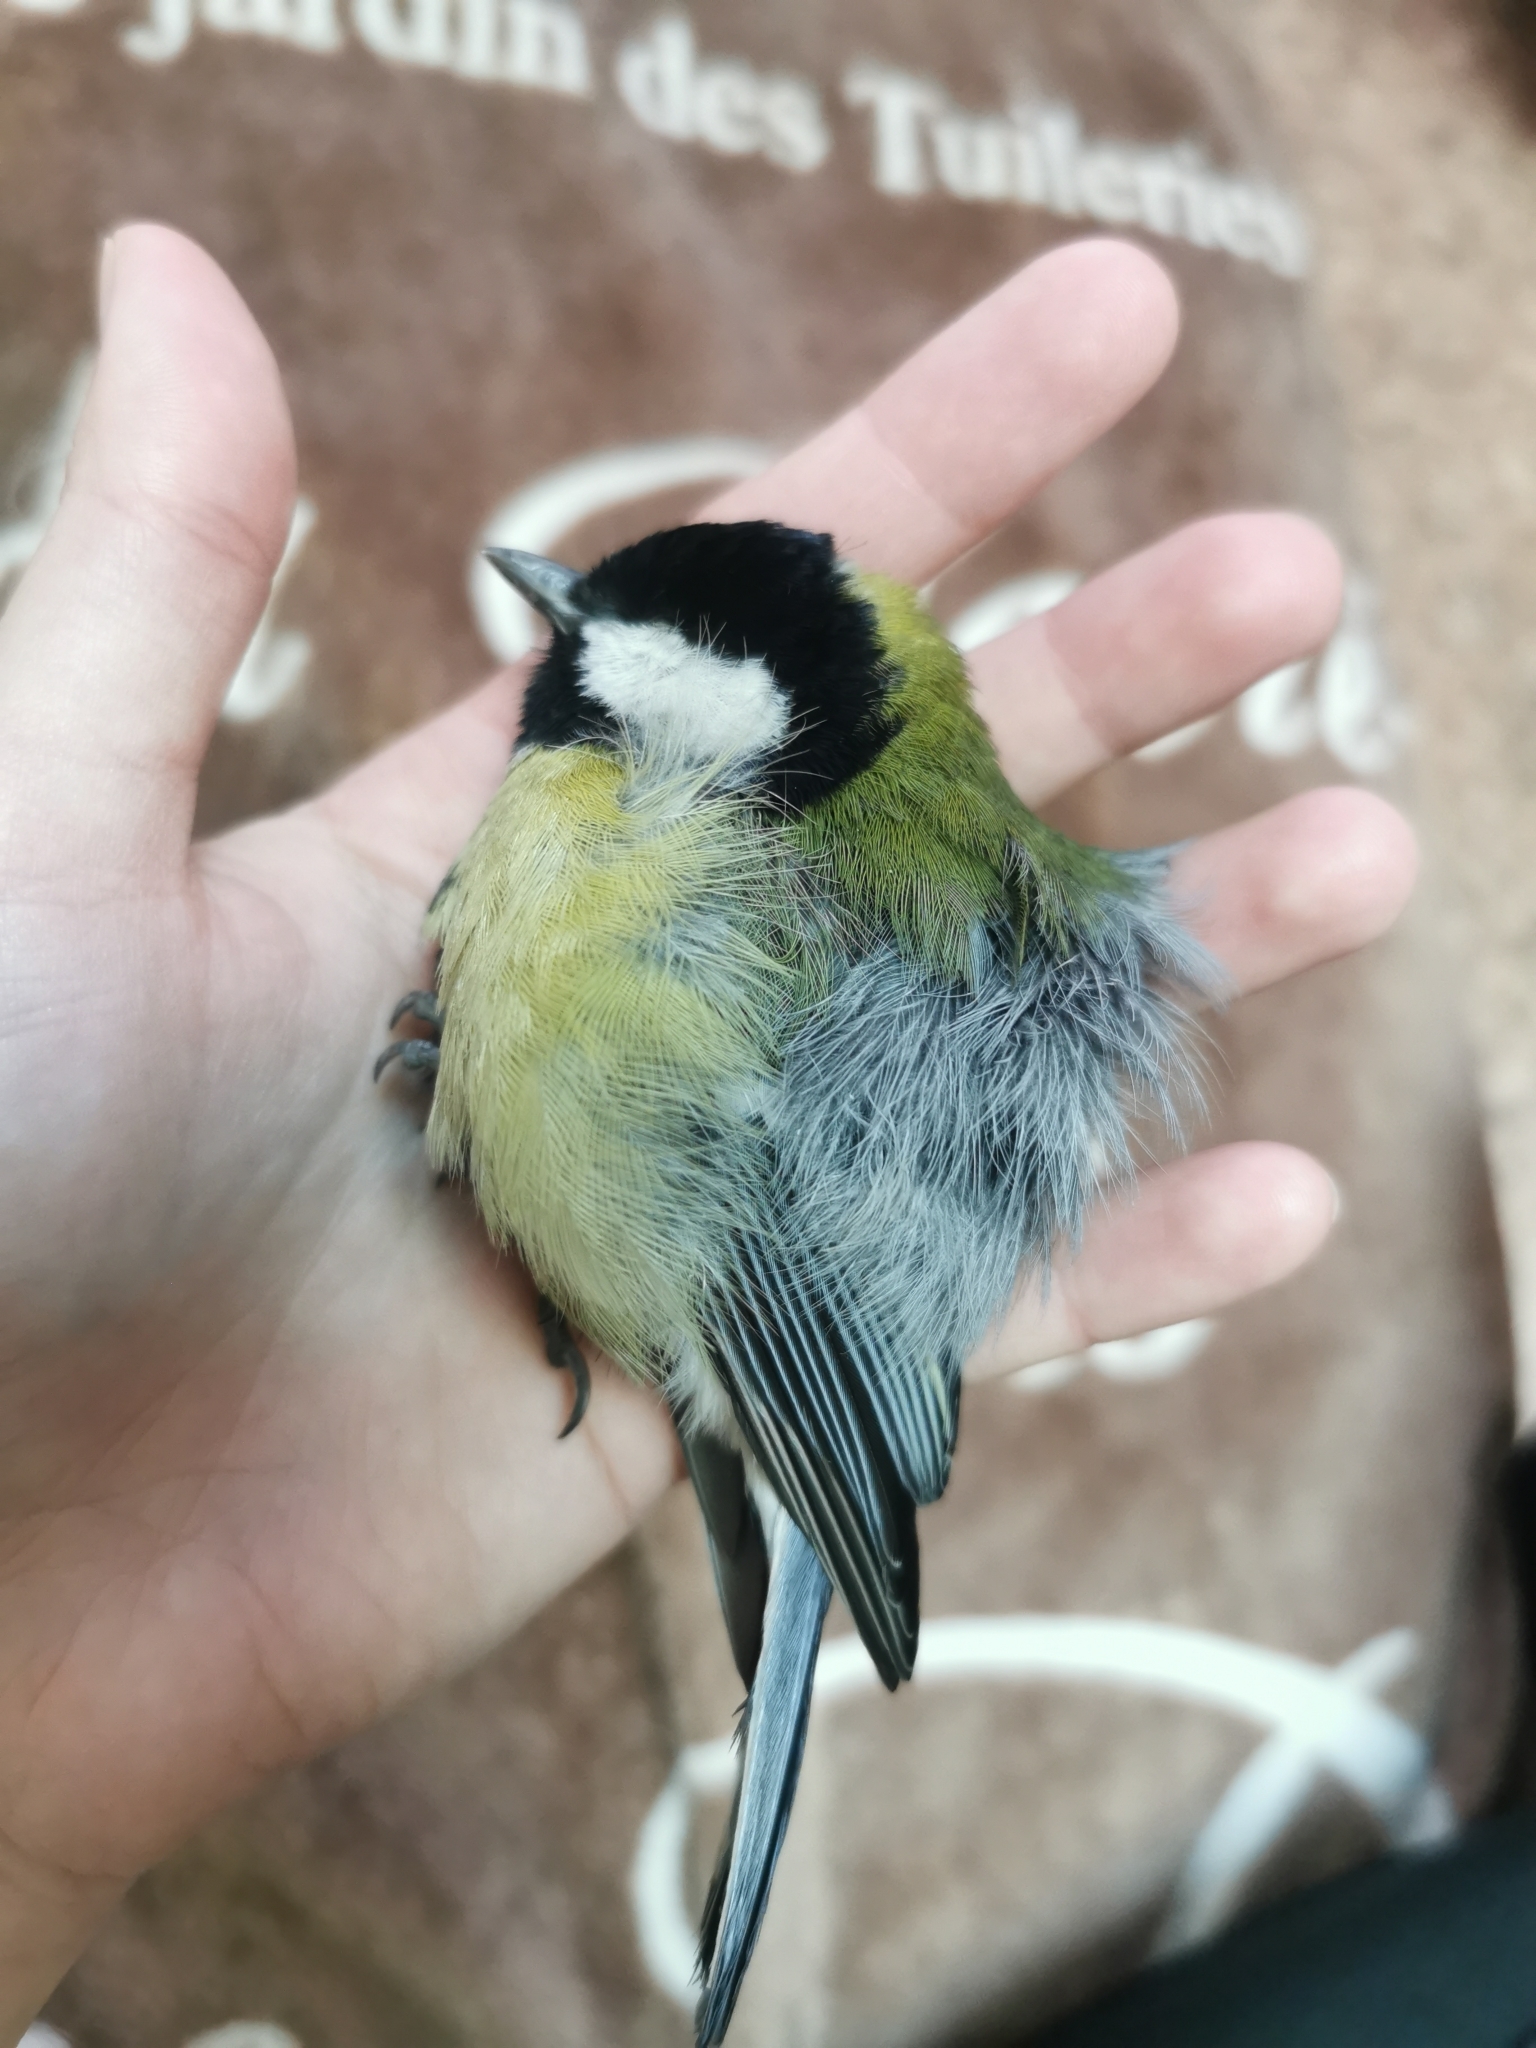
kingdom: Animalia
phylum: Chordata
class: Aves
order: Passeriformes
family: Paridae
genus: Parus
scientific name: Parus major
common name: Great tit
